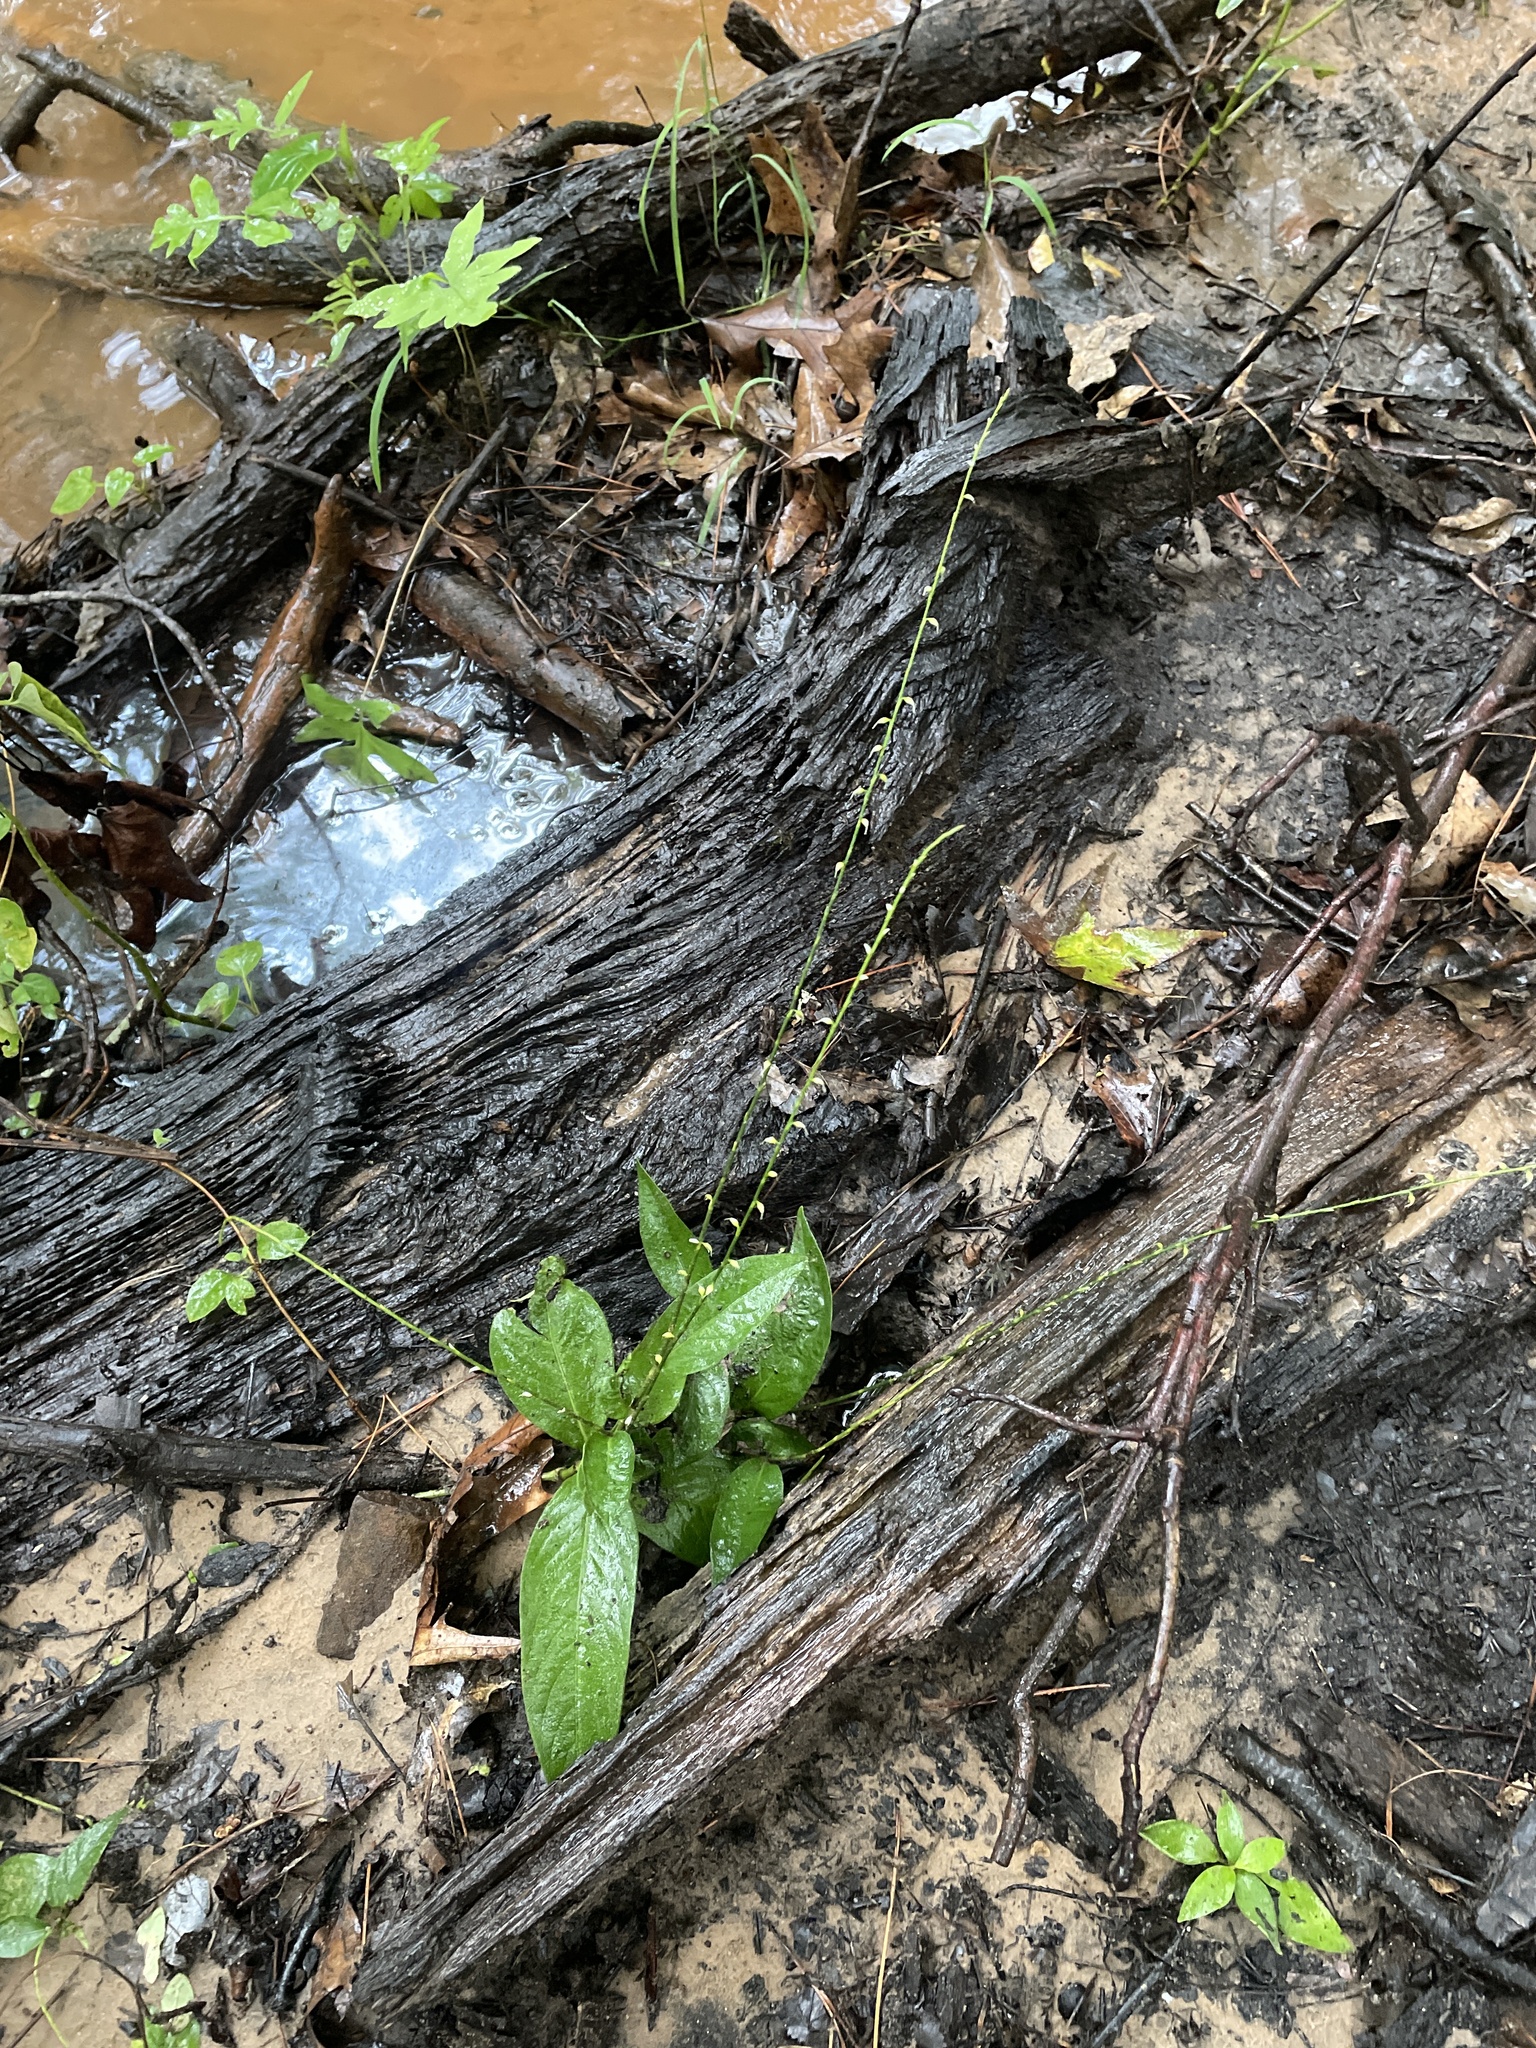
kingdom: Plantae
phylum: Tracheophyta
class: Magnoliopsida
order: Caryophyllales
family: Polygonaceae
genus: Persicaria
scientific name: Persicaria virginiana
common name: Jumpseed
